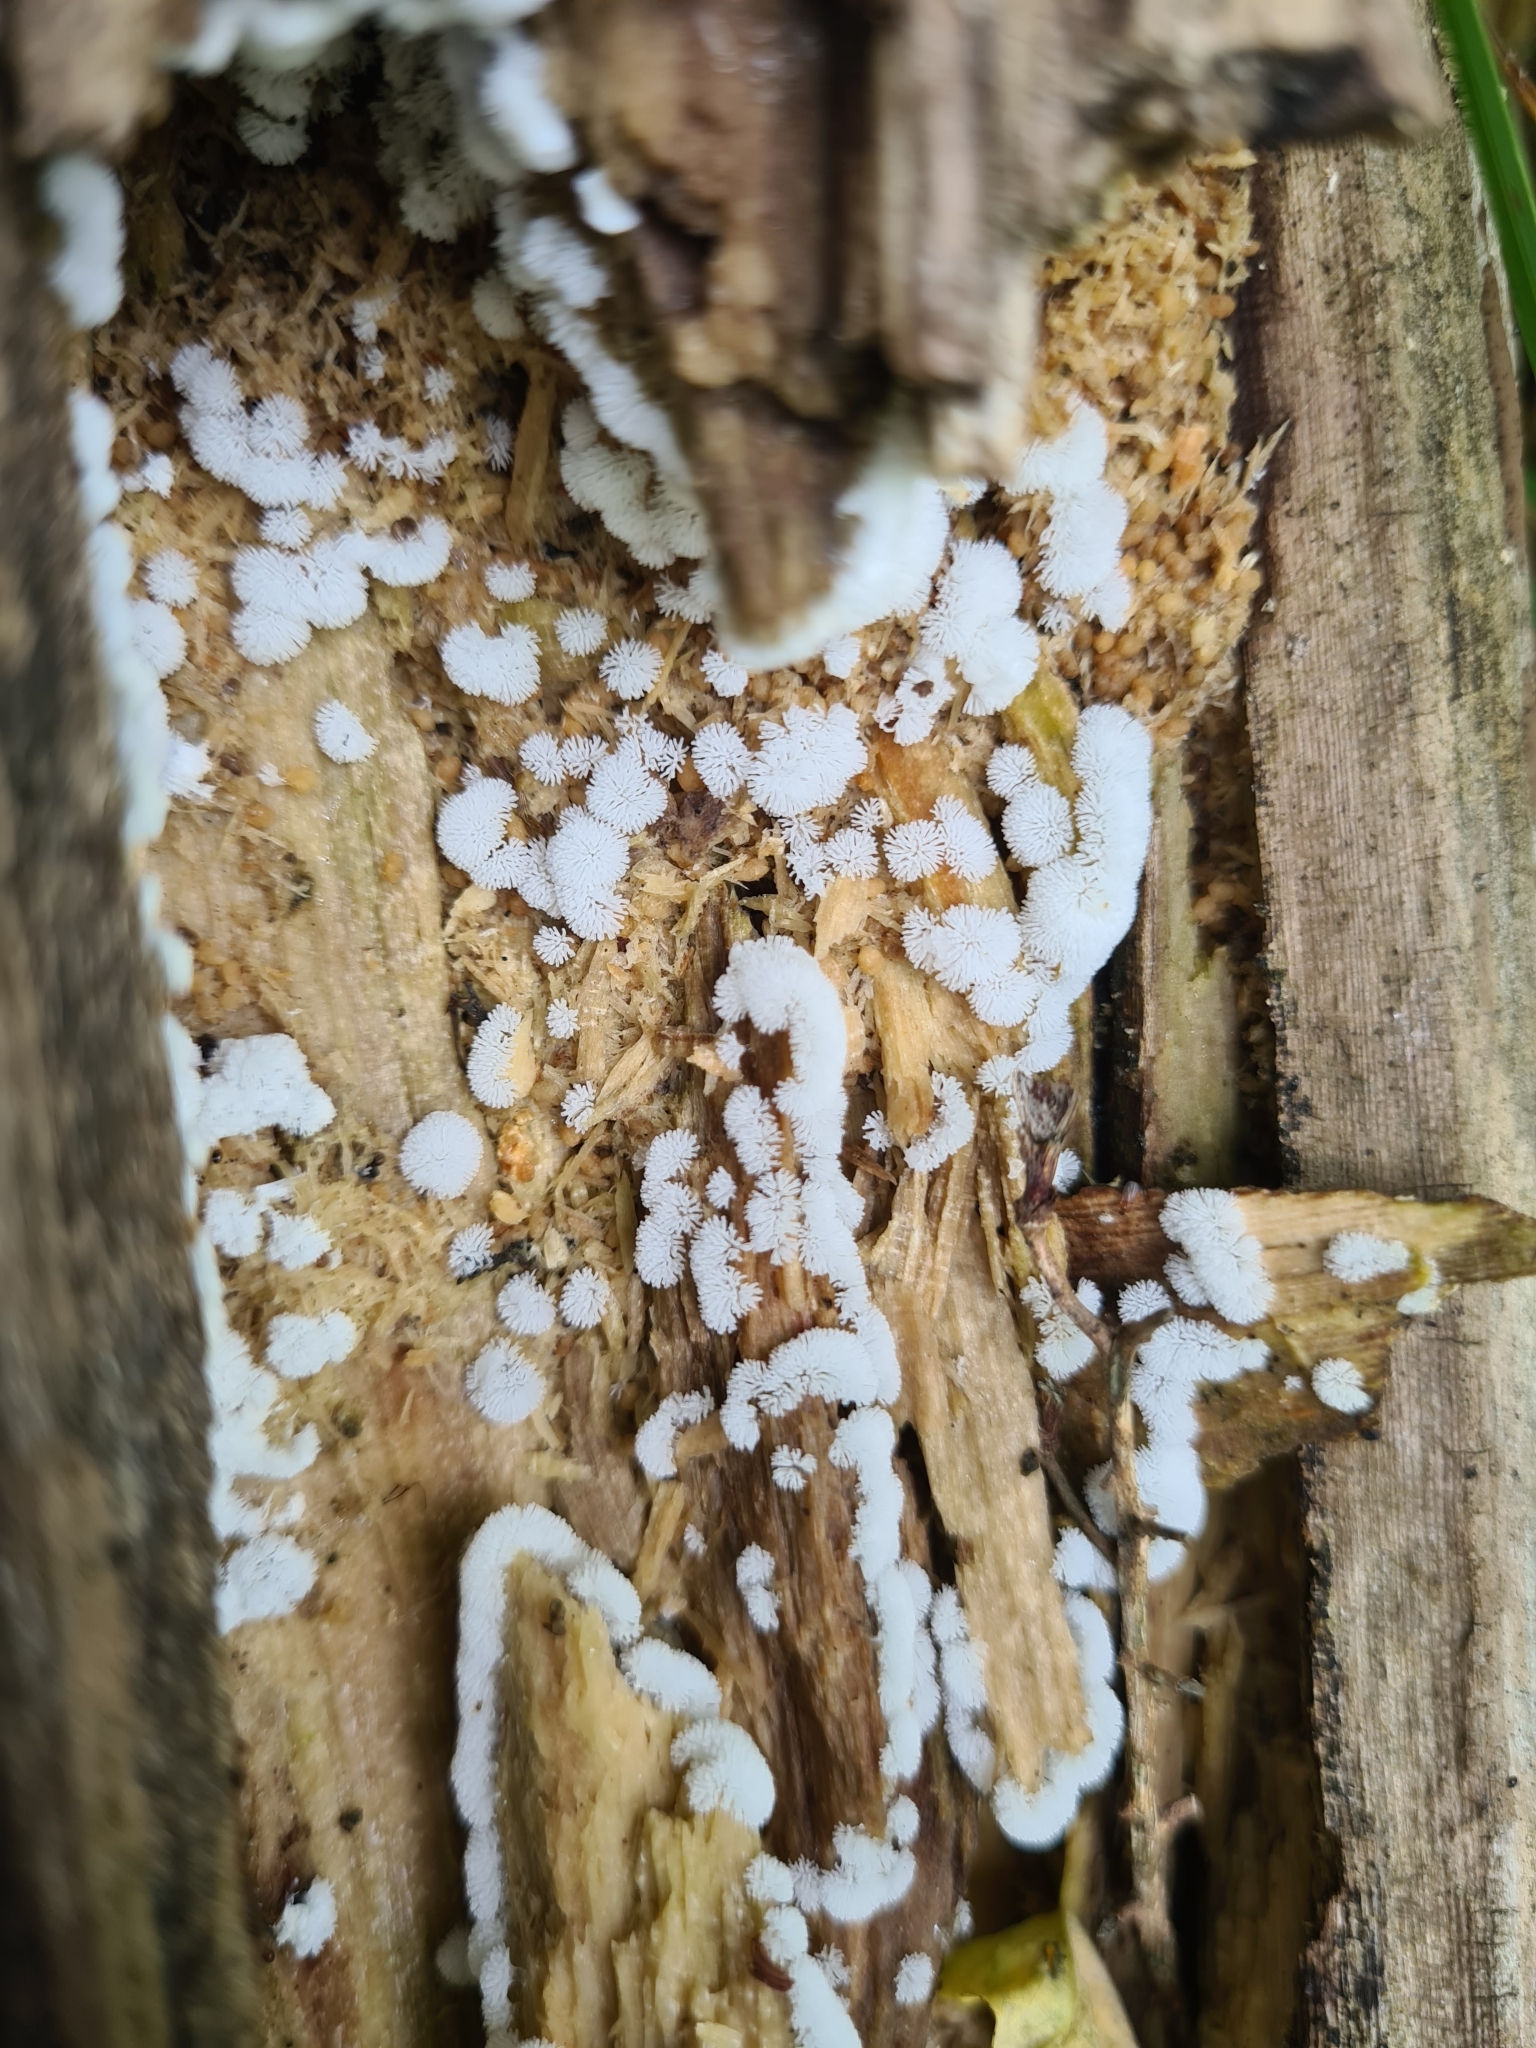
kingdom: Protozoa
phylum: Mycetozoa
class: Protosteliomycetes
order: Ceratiomyxales
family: Ceratiomyxaceae
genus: Ceratiomyxa
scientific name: Ceratiomyxa fruticulosa
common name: Honeycomb coral slime mold
